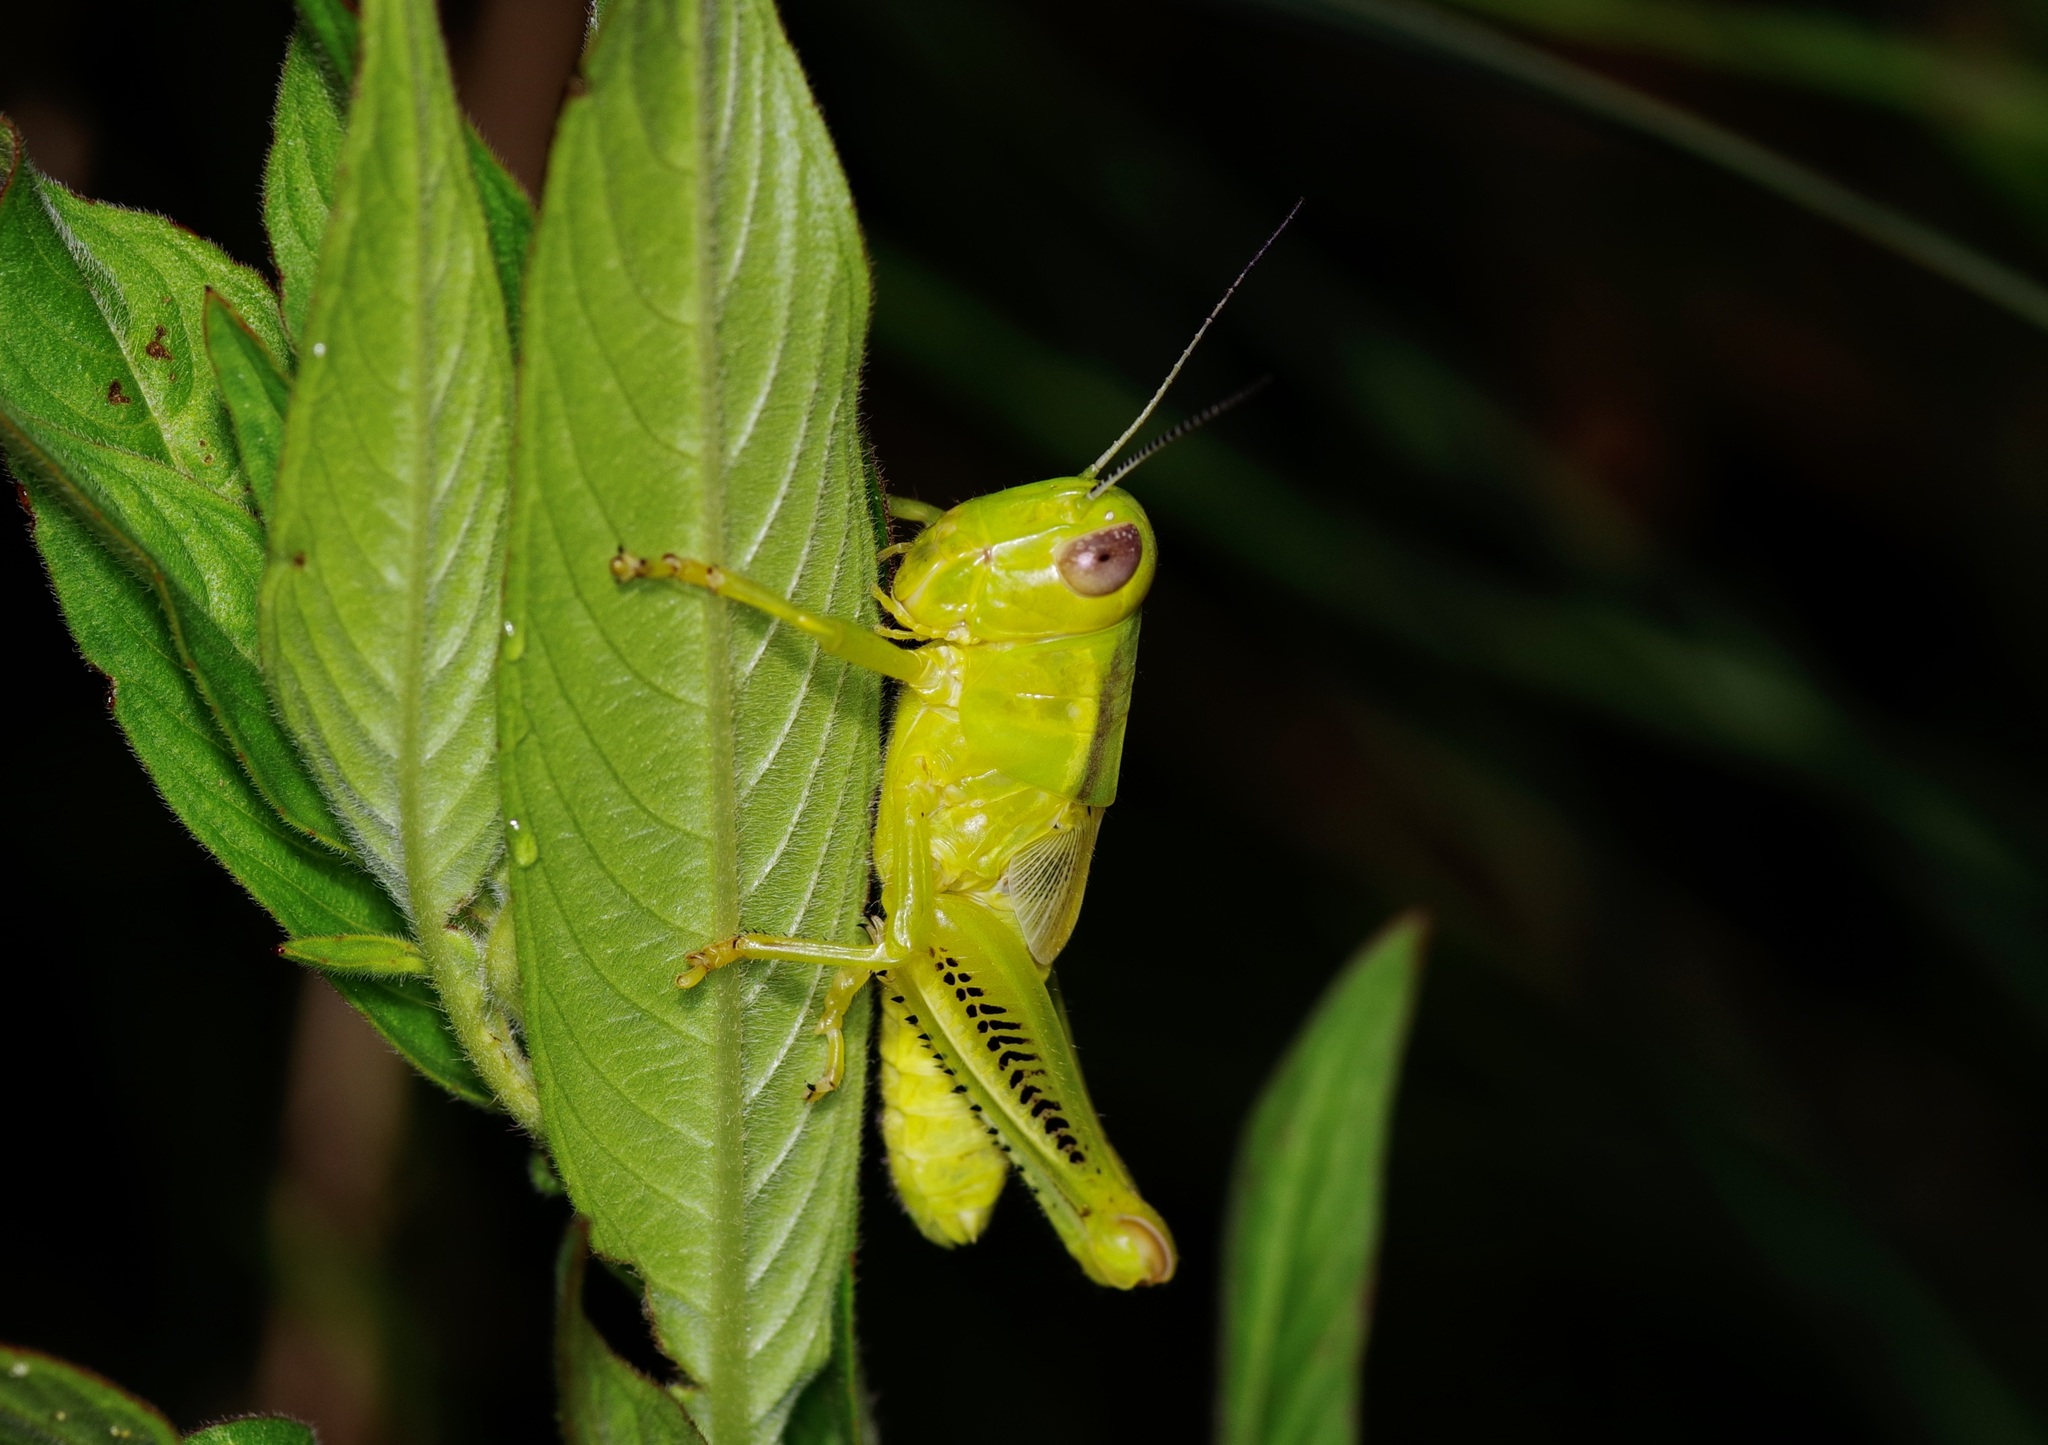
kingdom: Animalia
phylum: Arthropoda
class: Insecta
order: Orthoptera
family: Acrididae
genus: Melanoplus
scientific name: Melanoplus differentialis
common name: Differential grasshopper
